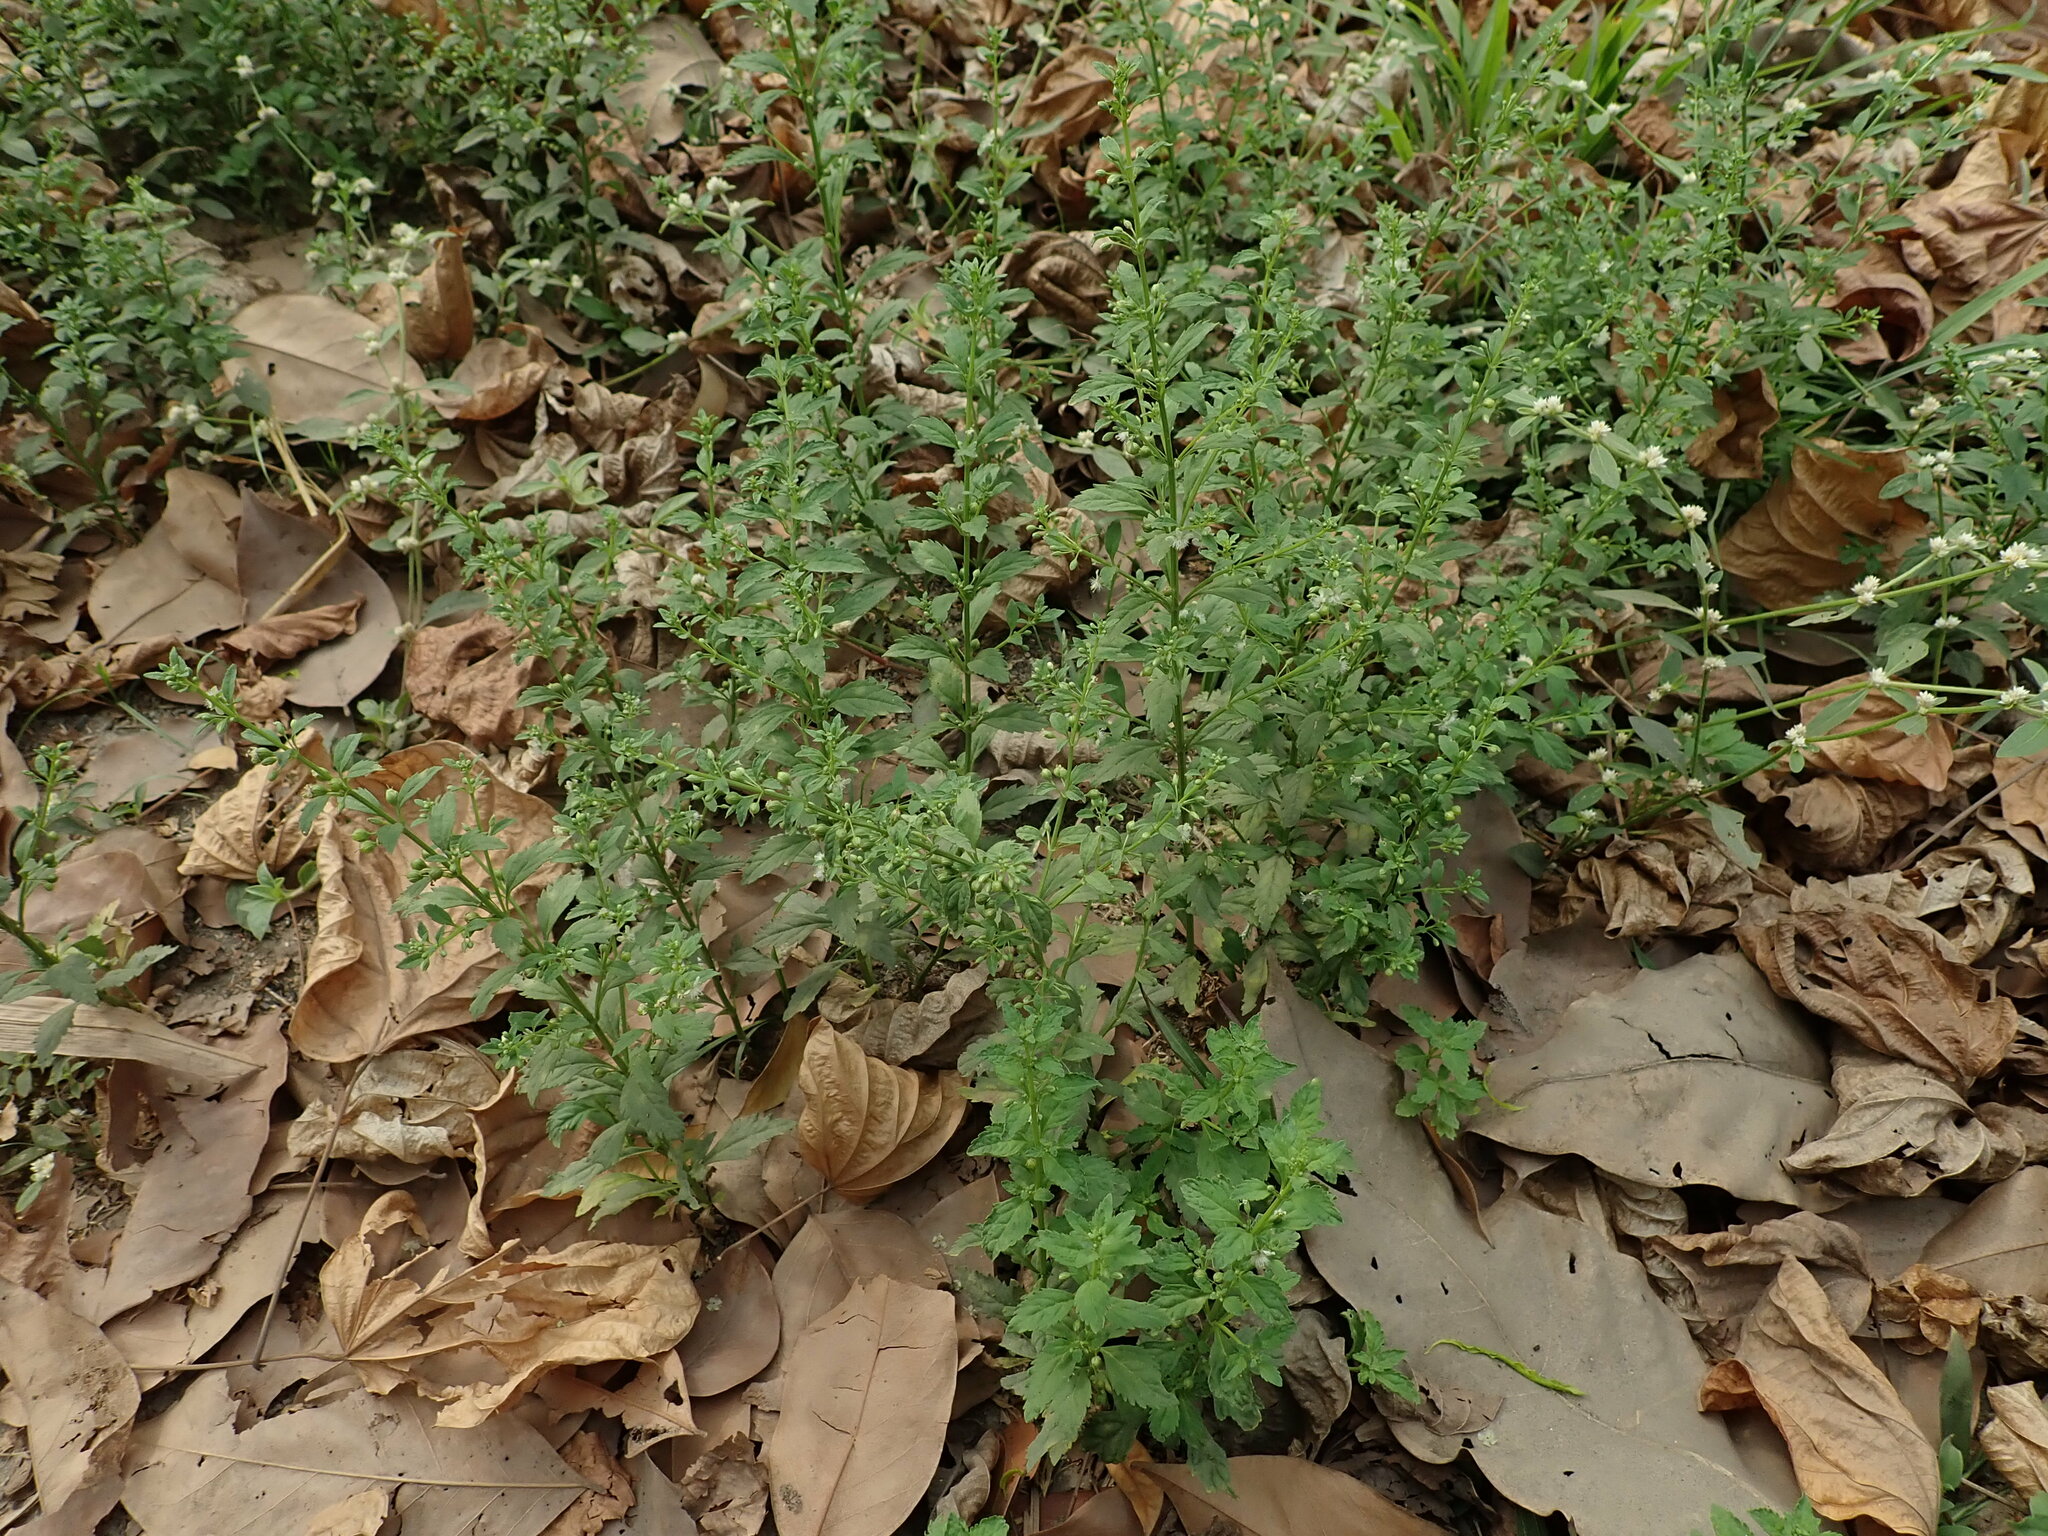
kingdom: Plantae
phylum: Tracheophyta
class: Magnoliopsida
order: Lamiales
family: Plantaginaceae
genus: Scoparia
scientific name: Scoparia dulcis
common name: Scoparia-weed
